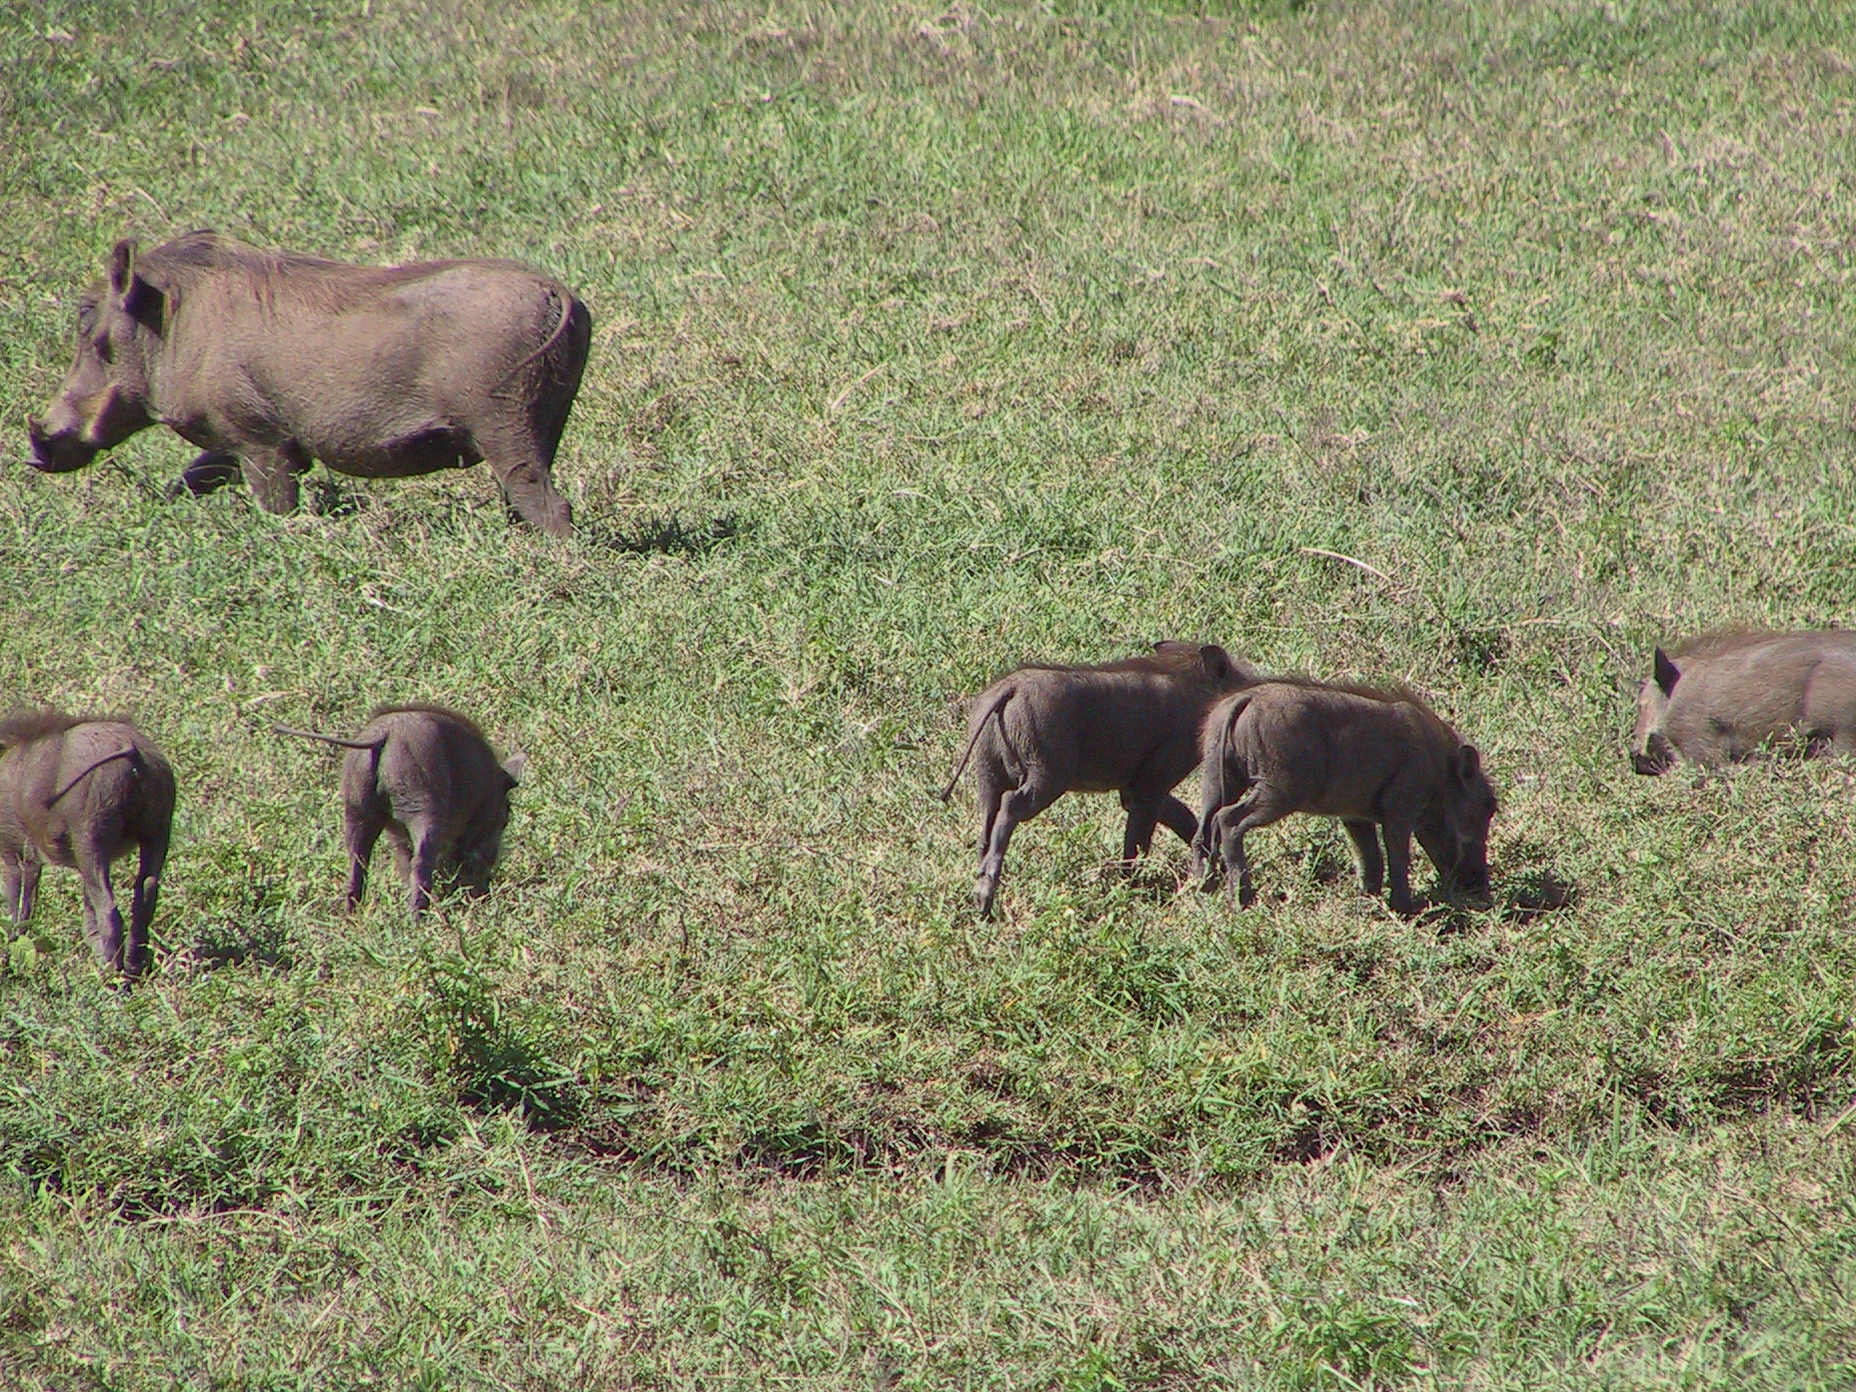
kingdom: Animalia
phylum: Chordata
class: Mammalia
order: Artiodactyla
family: Suidae
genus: Phacochoerus
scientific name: Phacochoerus africanus
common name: Common warthog
